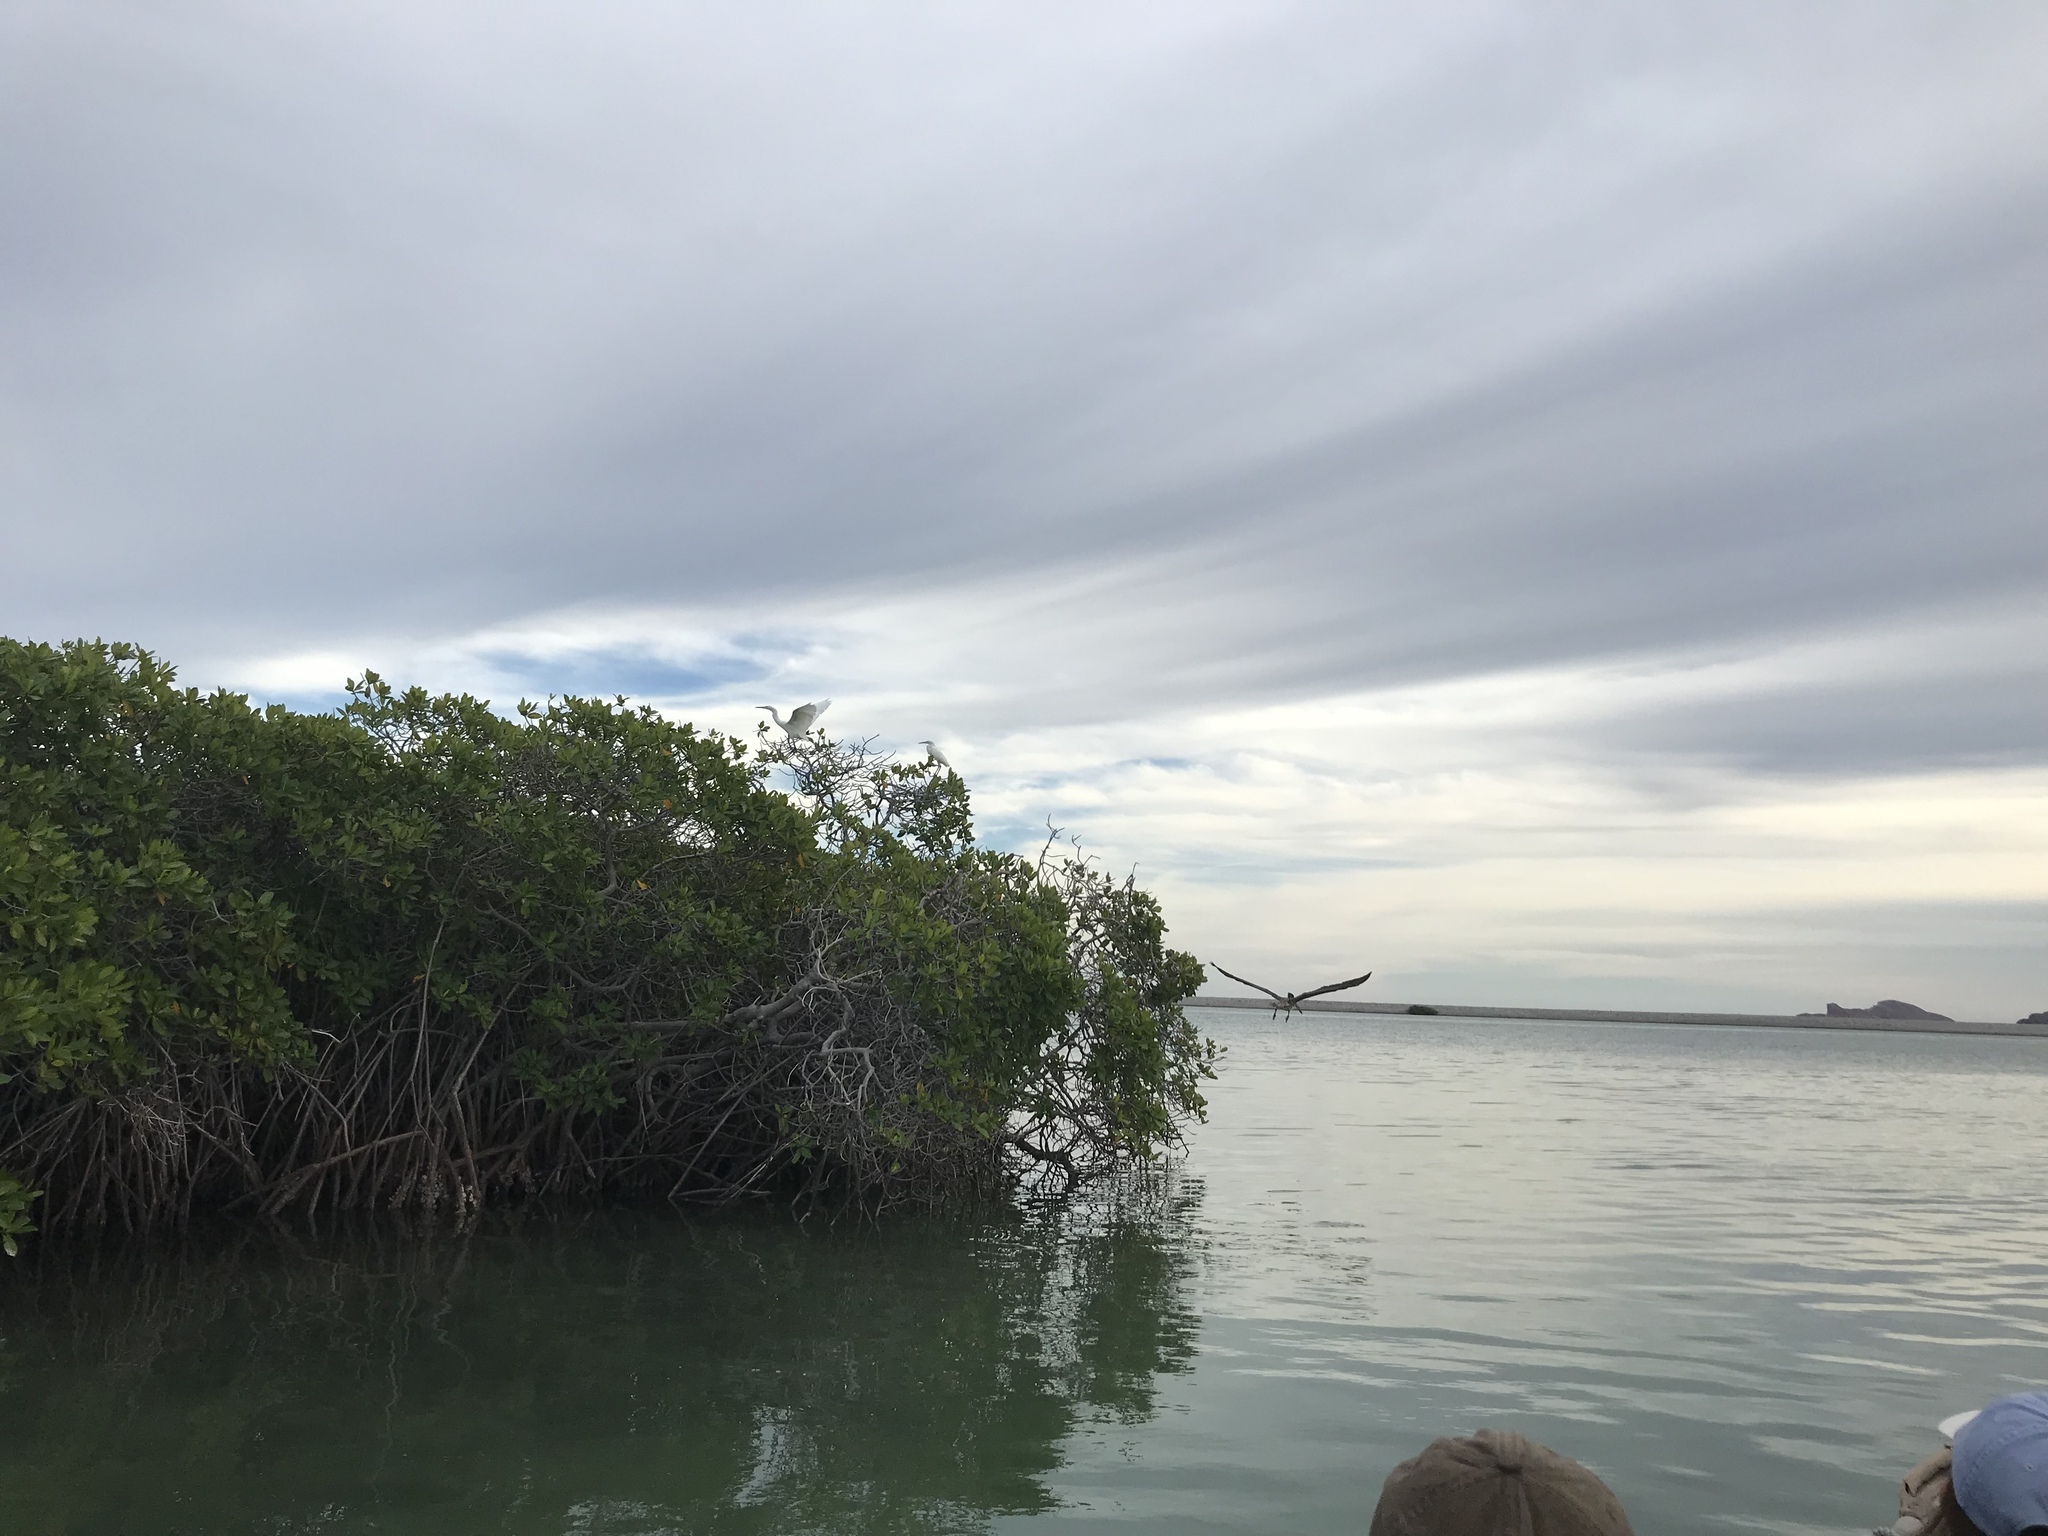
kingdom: Plantae
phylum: Tracheophyta
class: Magnoliopsida
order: Malpighiales
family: Rhizophoraceae
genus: Rhizophora
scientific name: Rhizophora mangle
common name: Red mangrove
